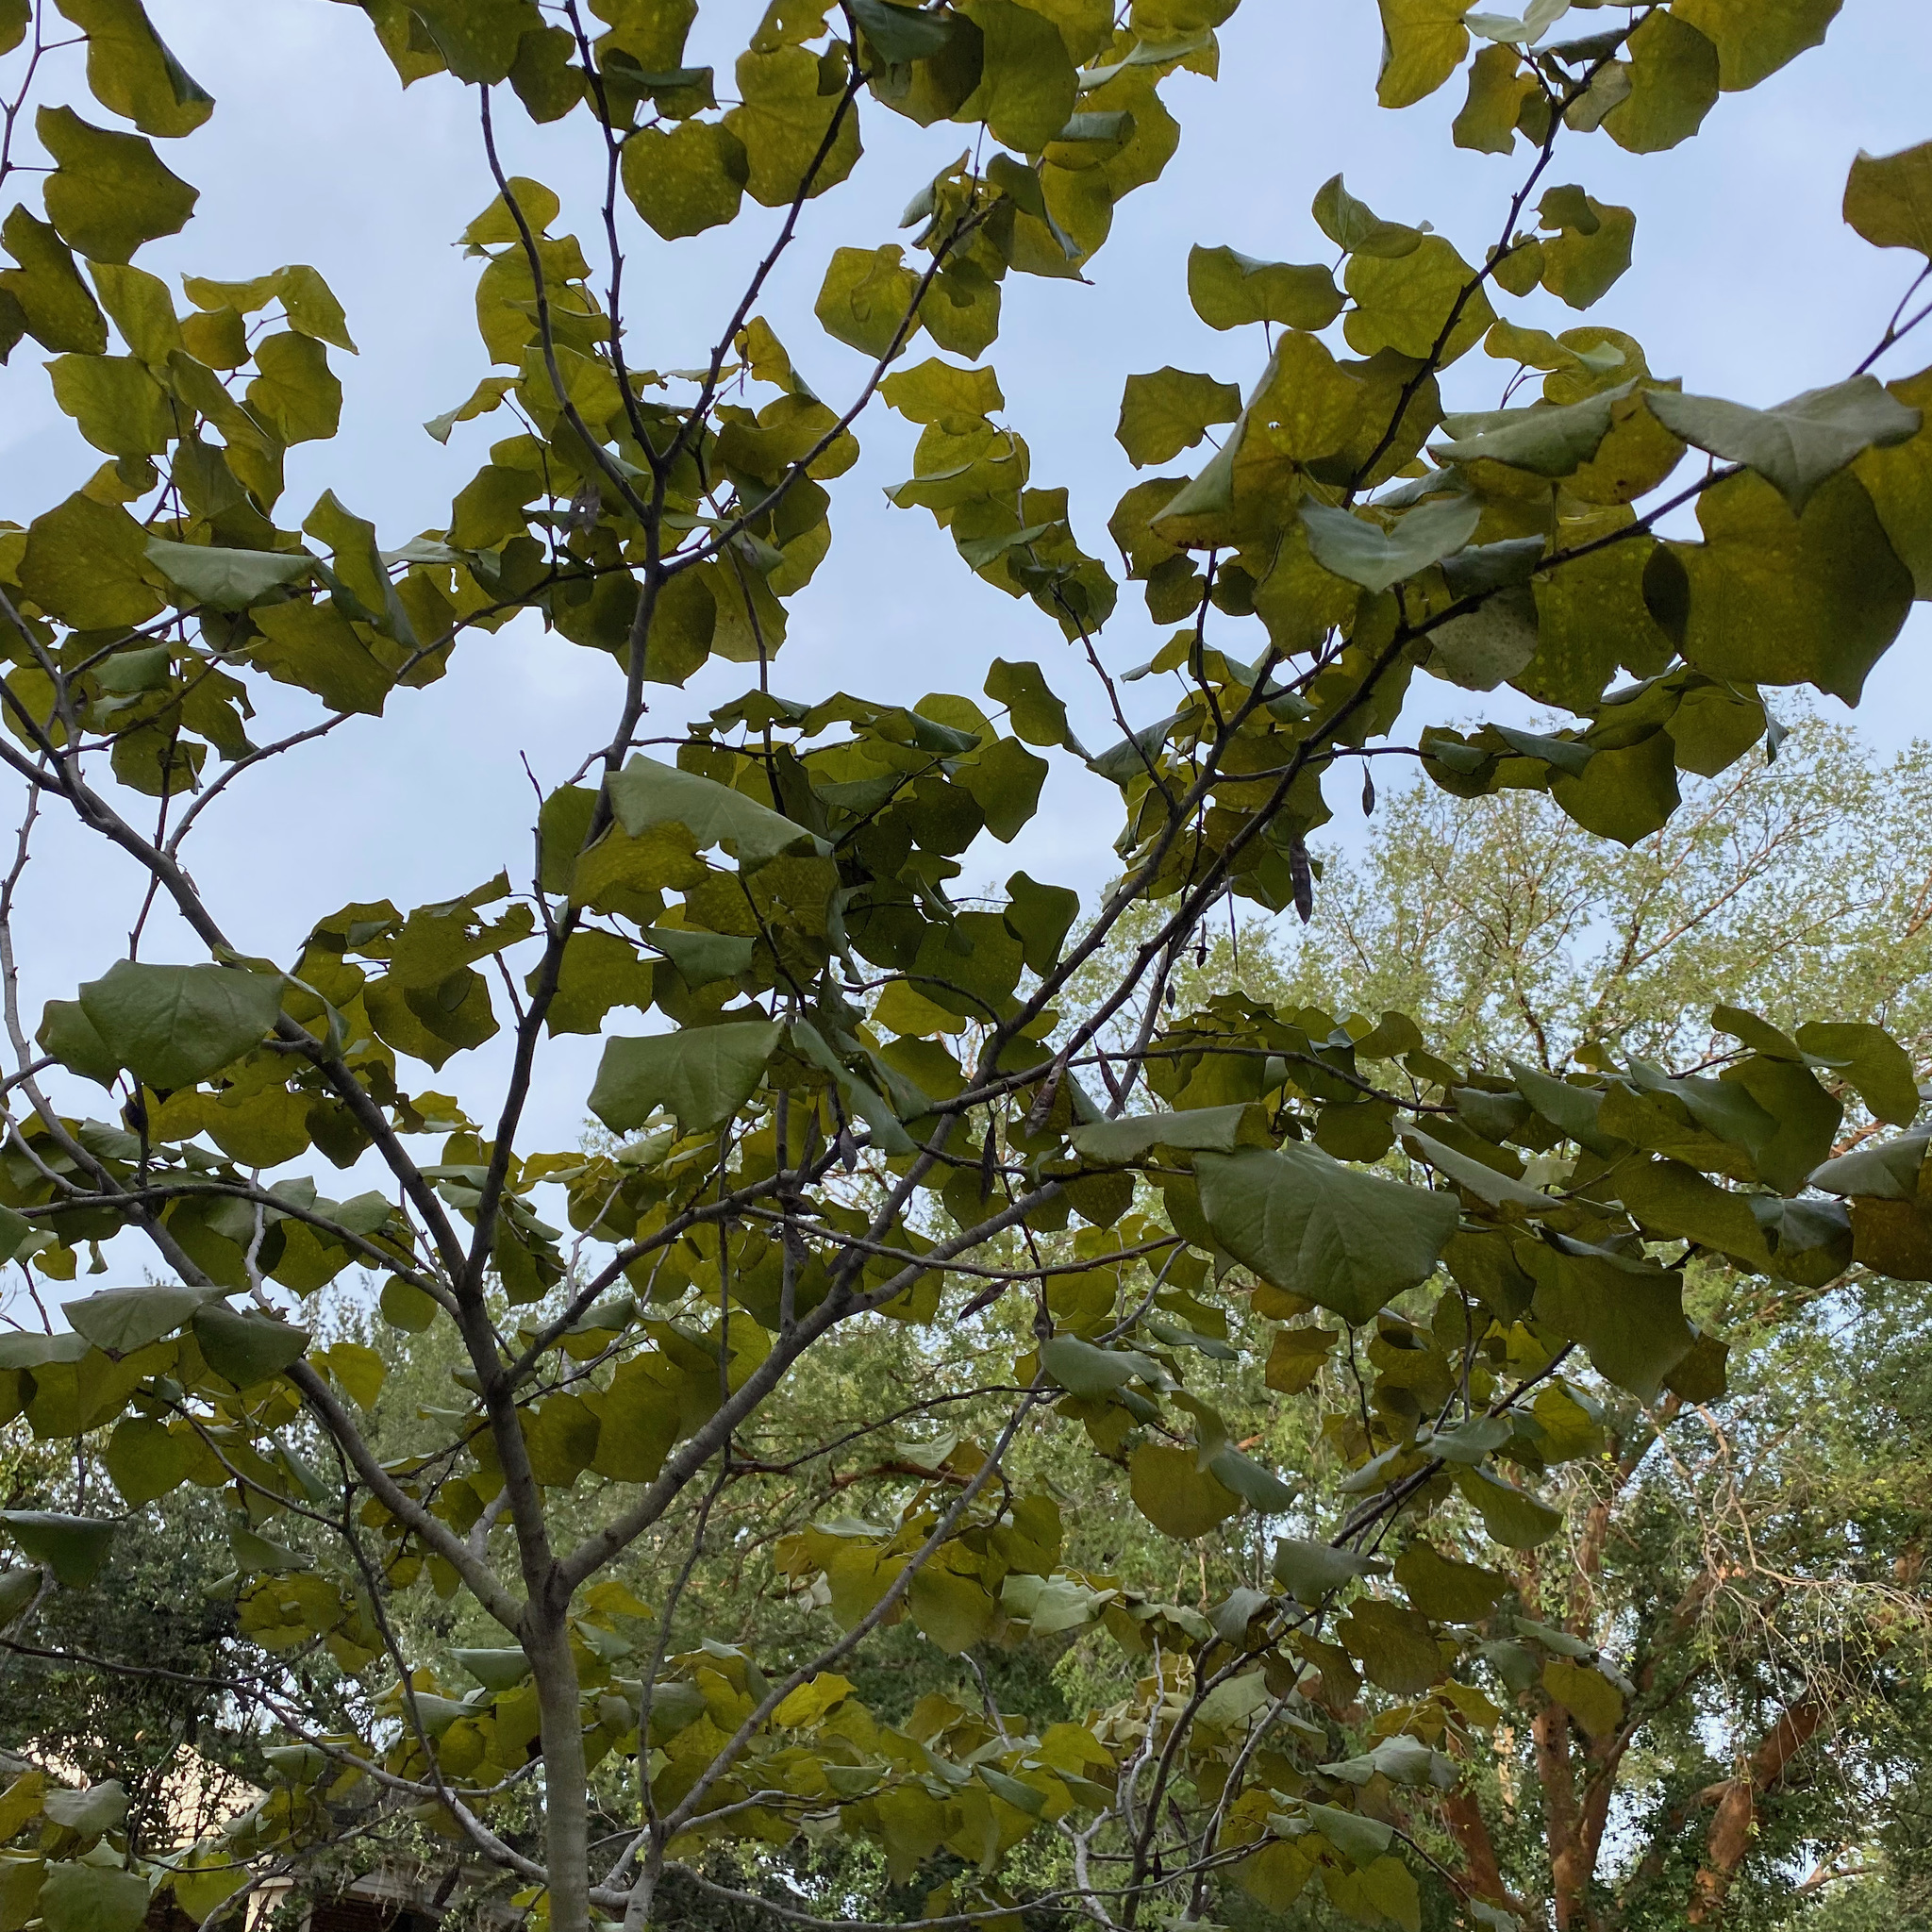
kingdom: Plantae
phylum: Tracheophyta
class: Magnoliopsida
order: Fabales
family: Fabaceae
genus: Cercis
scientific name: Cercis canadensis
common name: Eastern redbud
